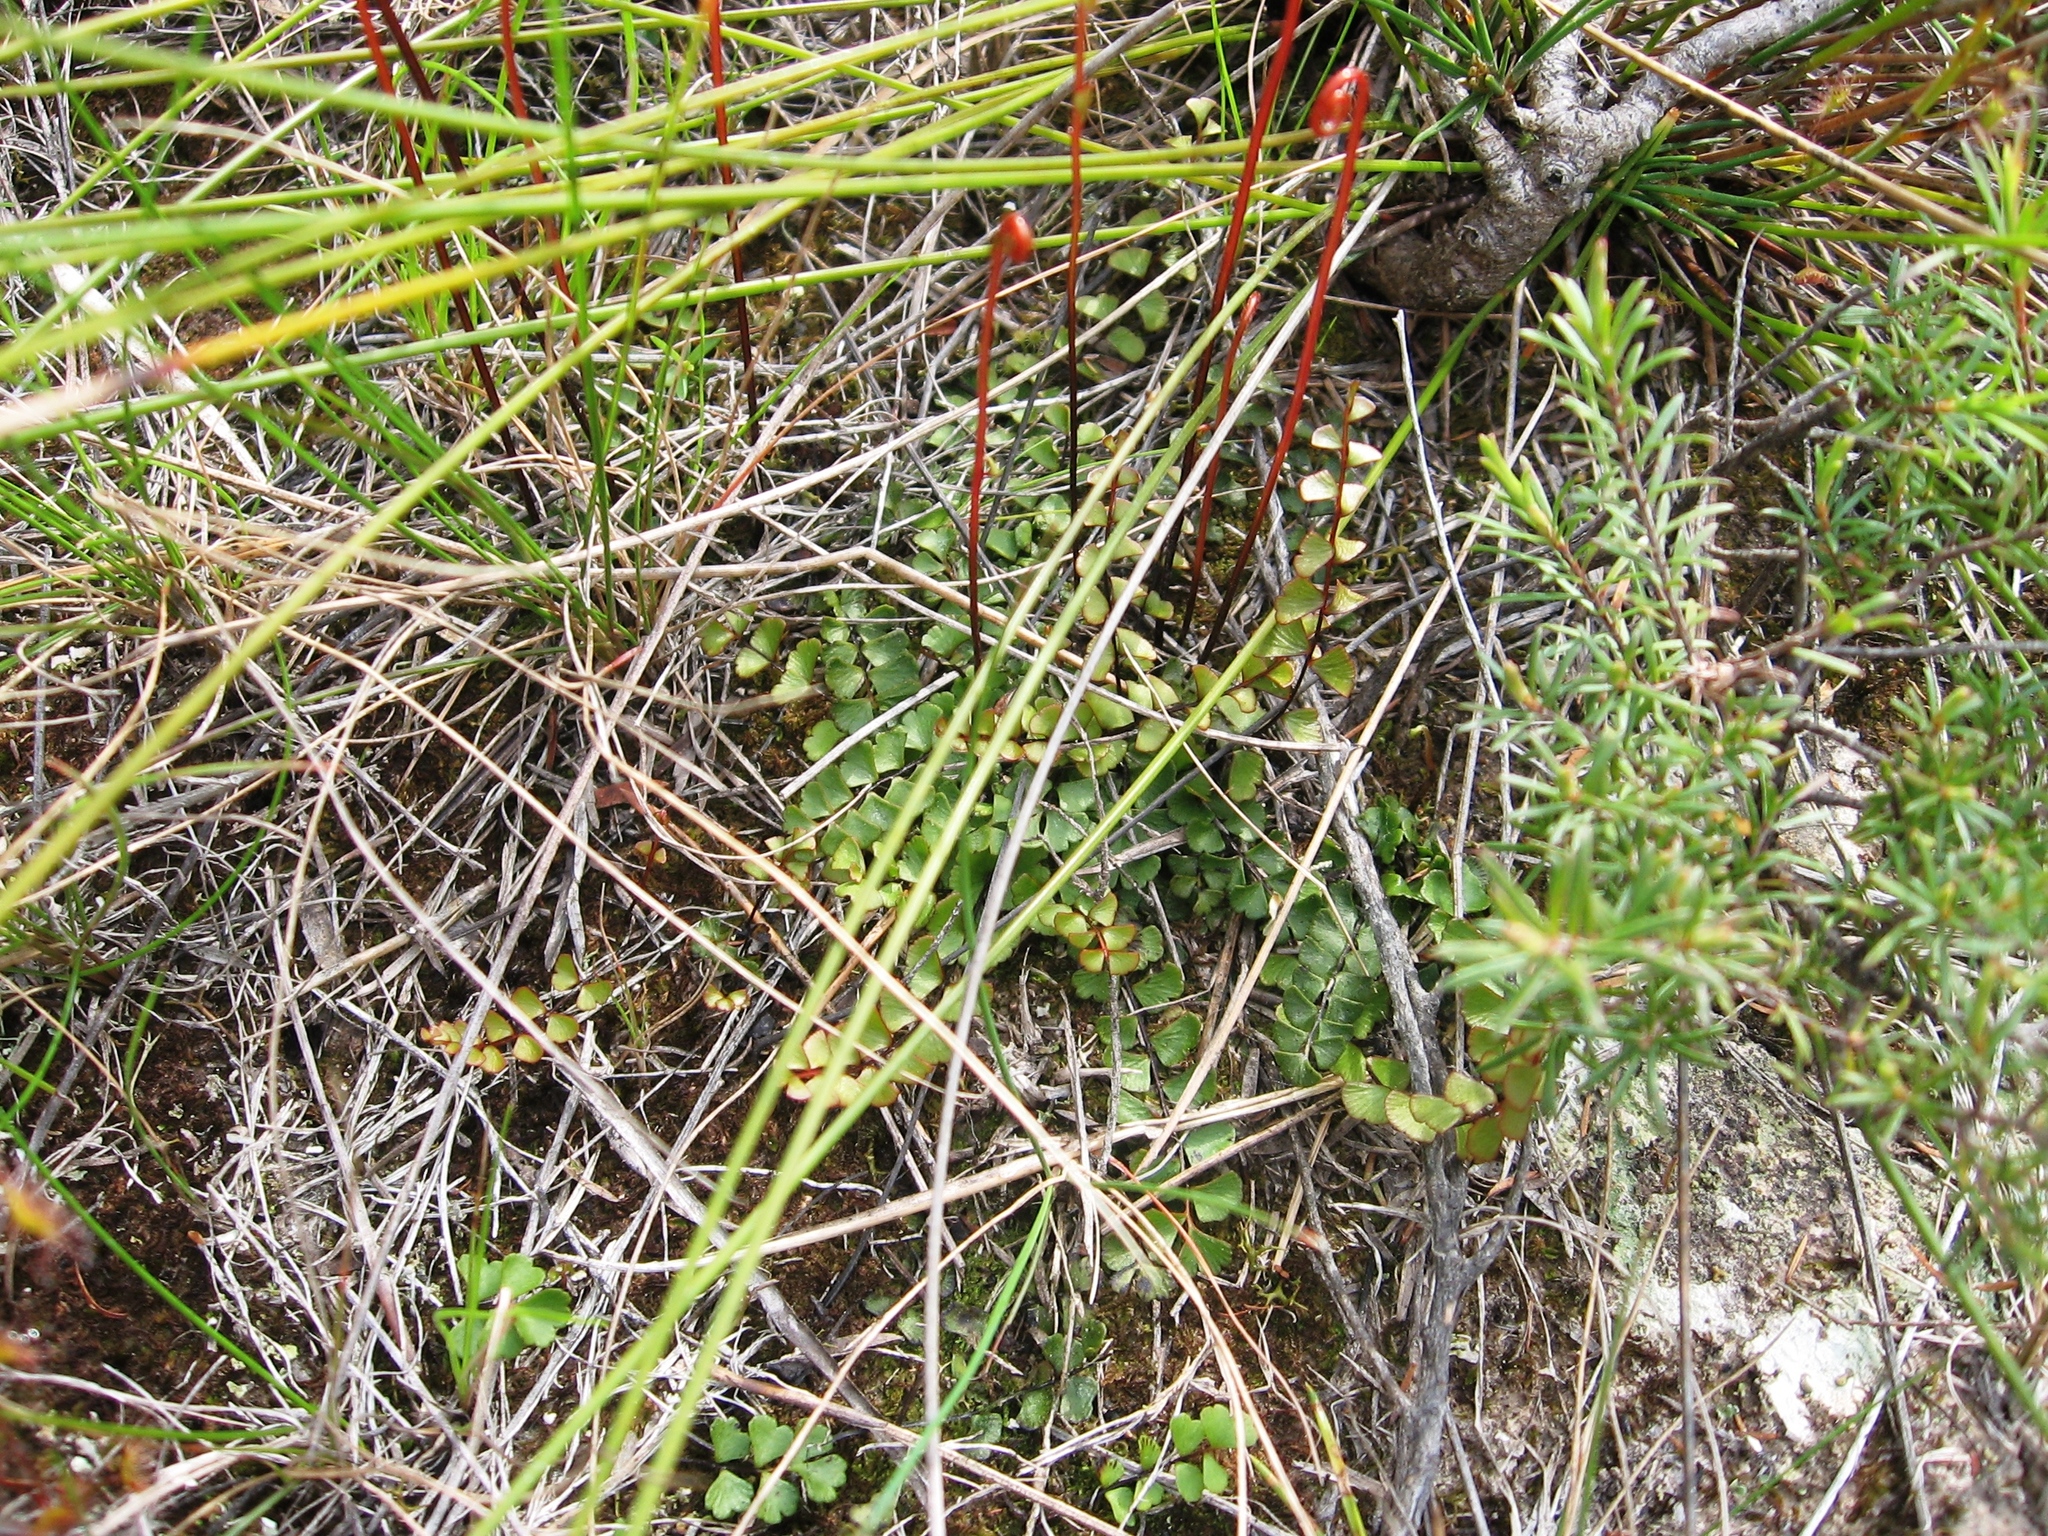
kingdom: Plantae
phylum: Tracheophyta
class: Polypodiopsida
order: Polypodiales
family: Lindsaeaceae
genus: Lindsaea
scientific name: Lindsaea linearis
